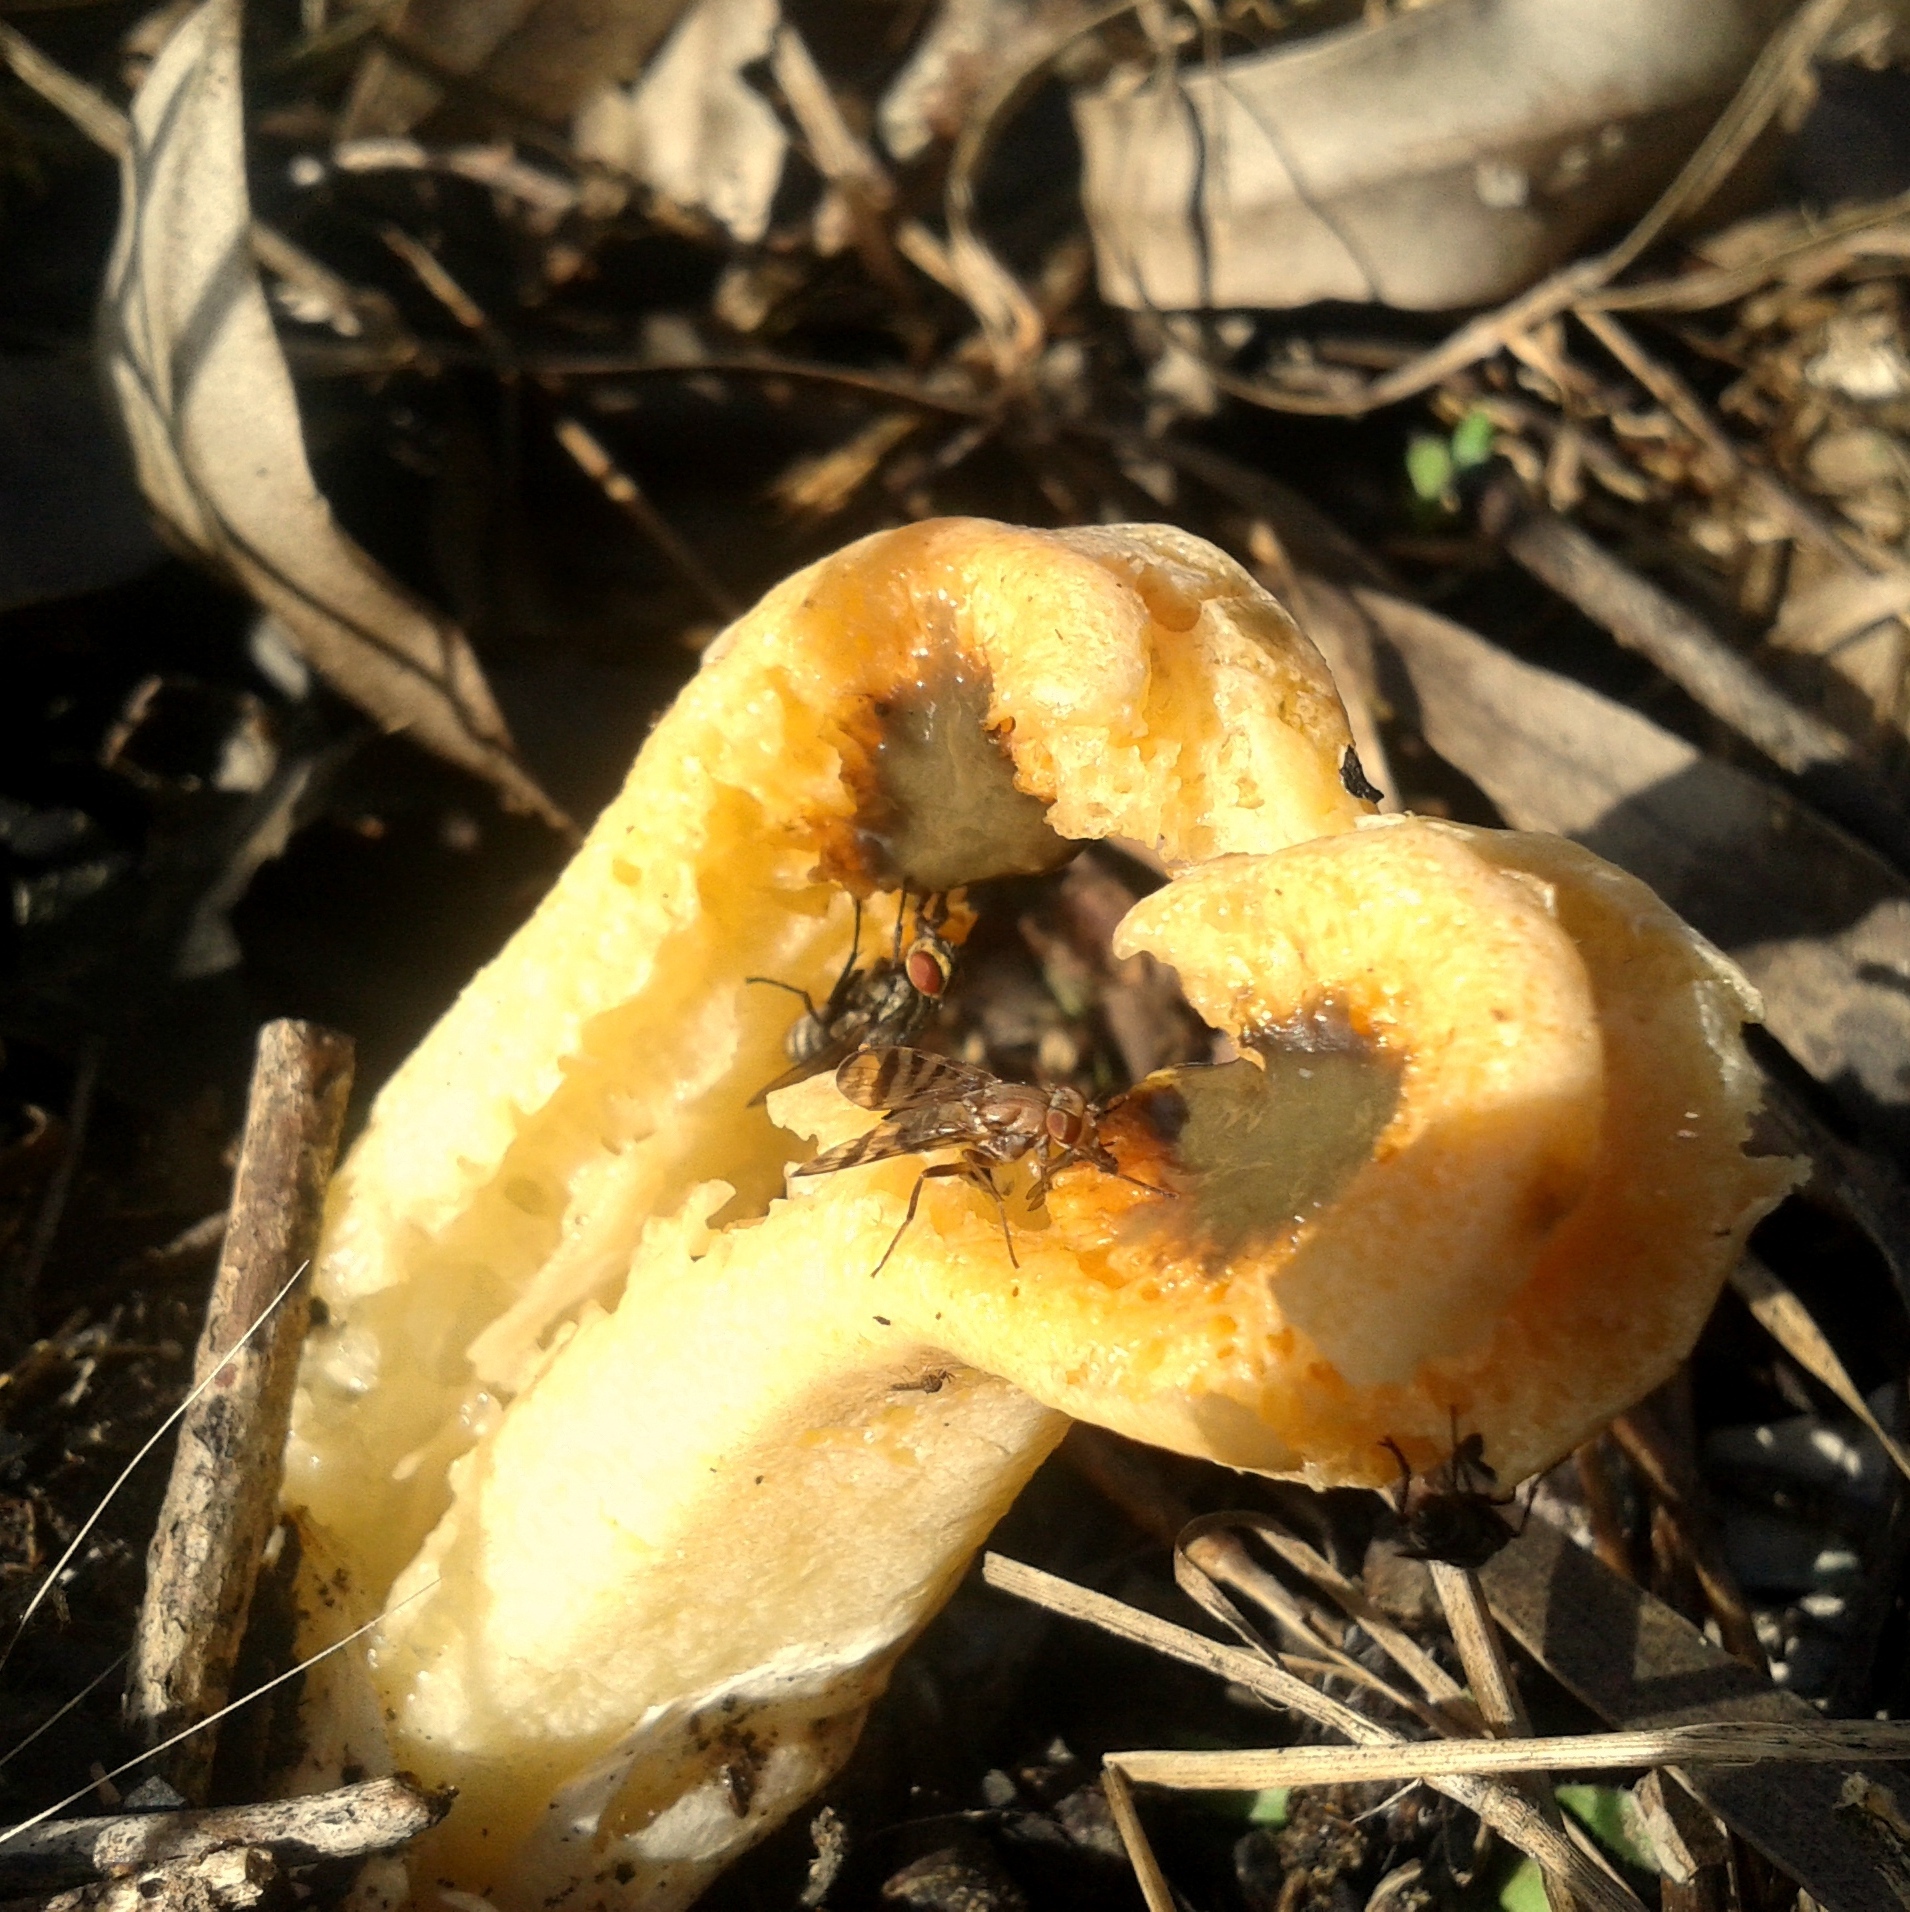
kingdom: Fungi
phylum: Basidiomycota
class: Agaricomycetes
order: Phallales
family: Phallaceae
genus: Clathrus
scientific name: Clathrus columnatus
